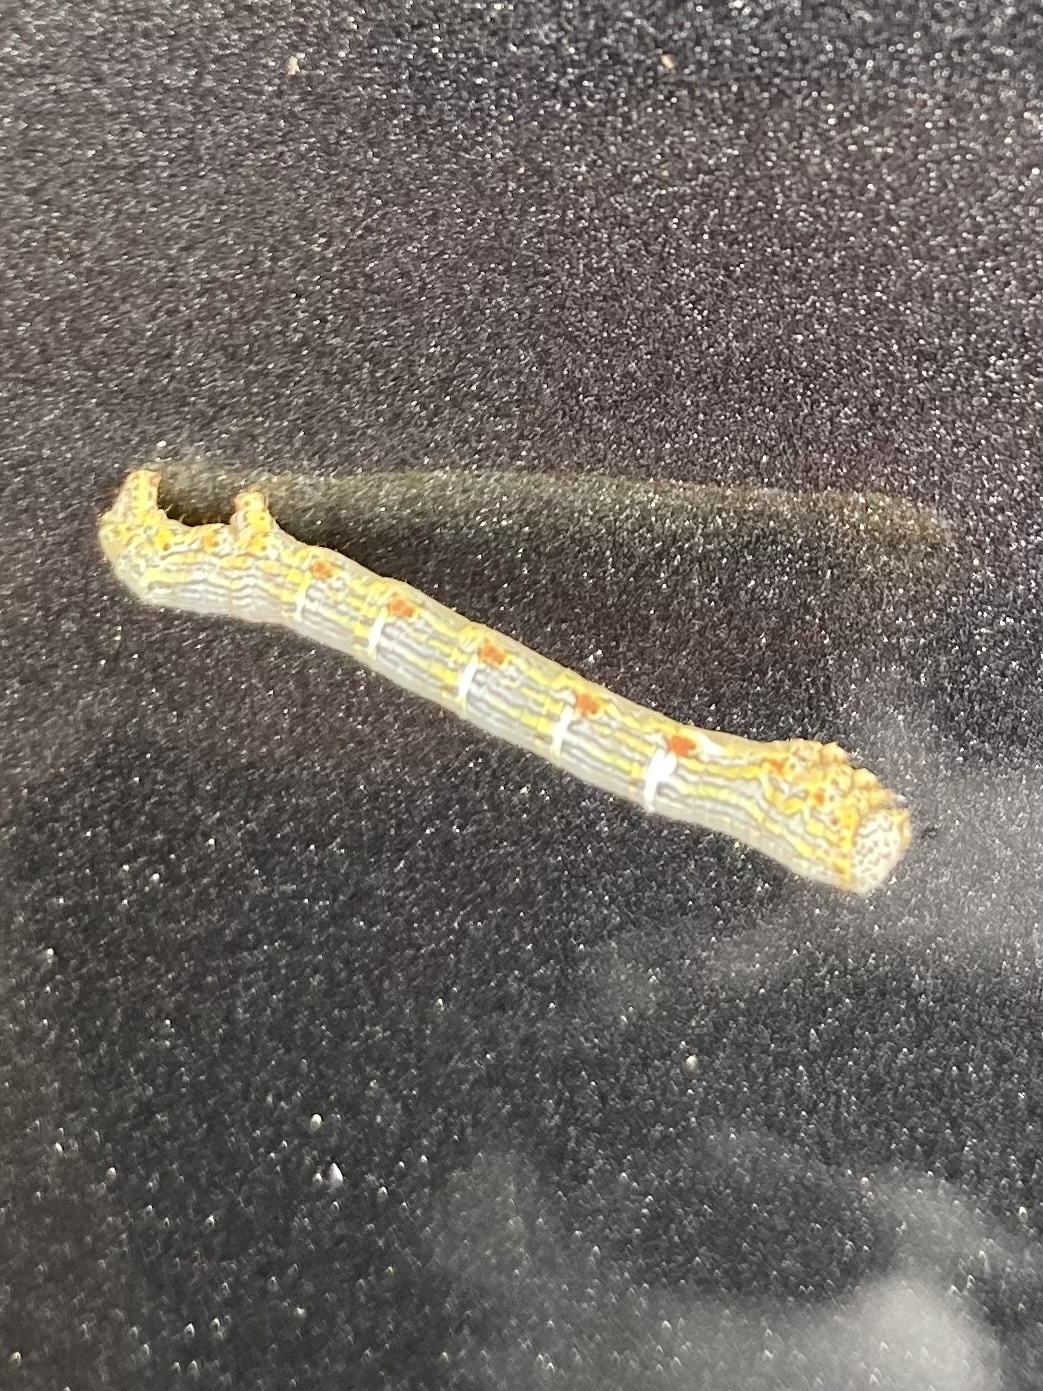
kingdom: Animalia
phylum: Arthropoda
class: Insecta
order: Lepidoptera
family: Geometridae
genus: Lycia
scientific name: Lycia ypsilon
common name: Wooly gray
